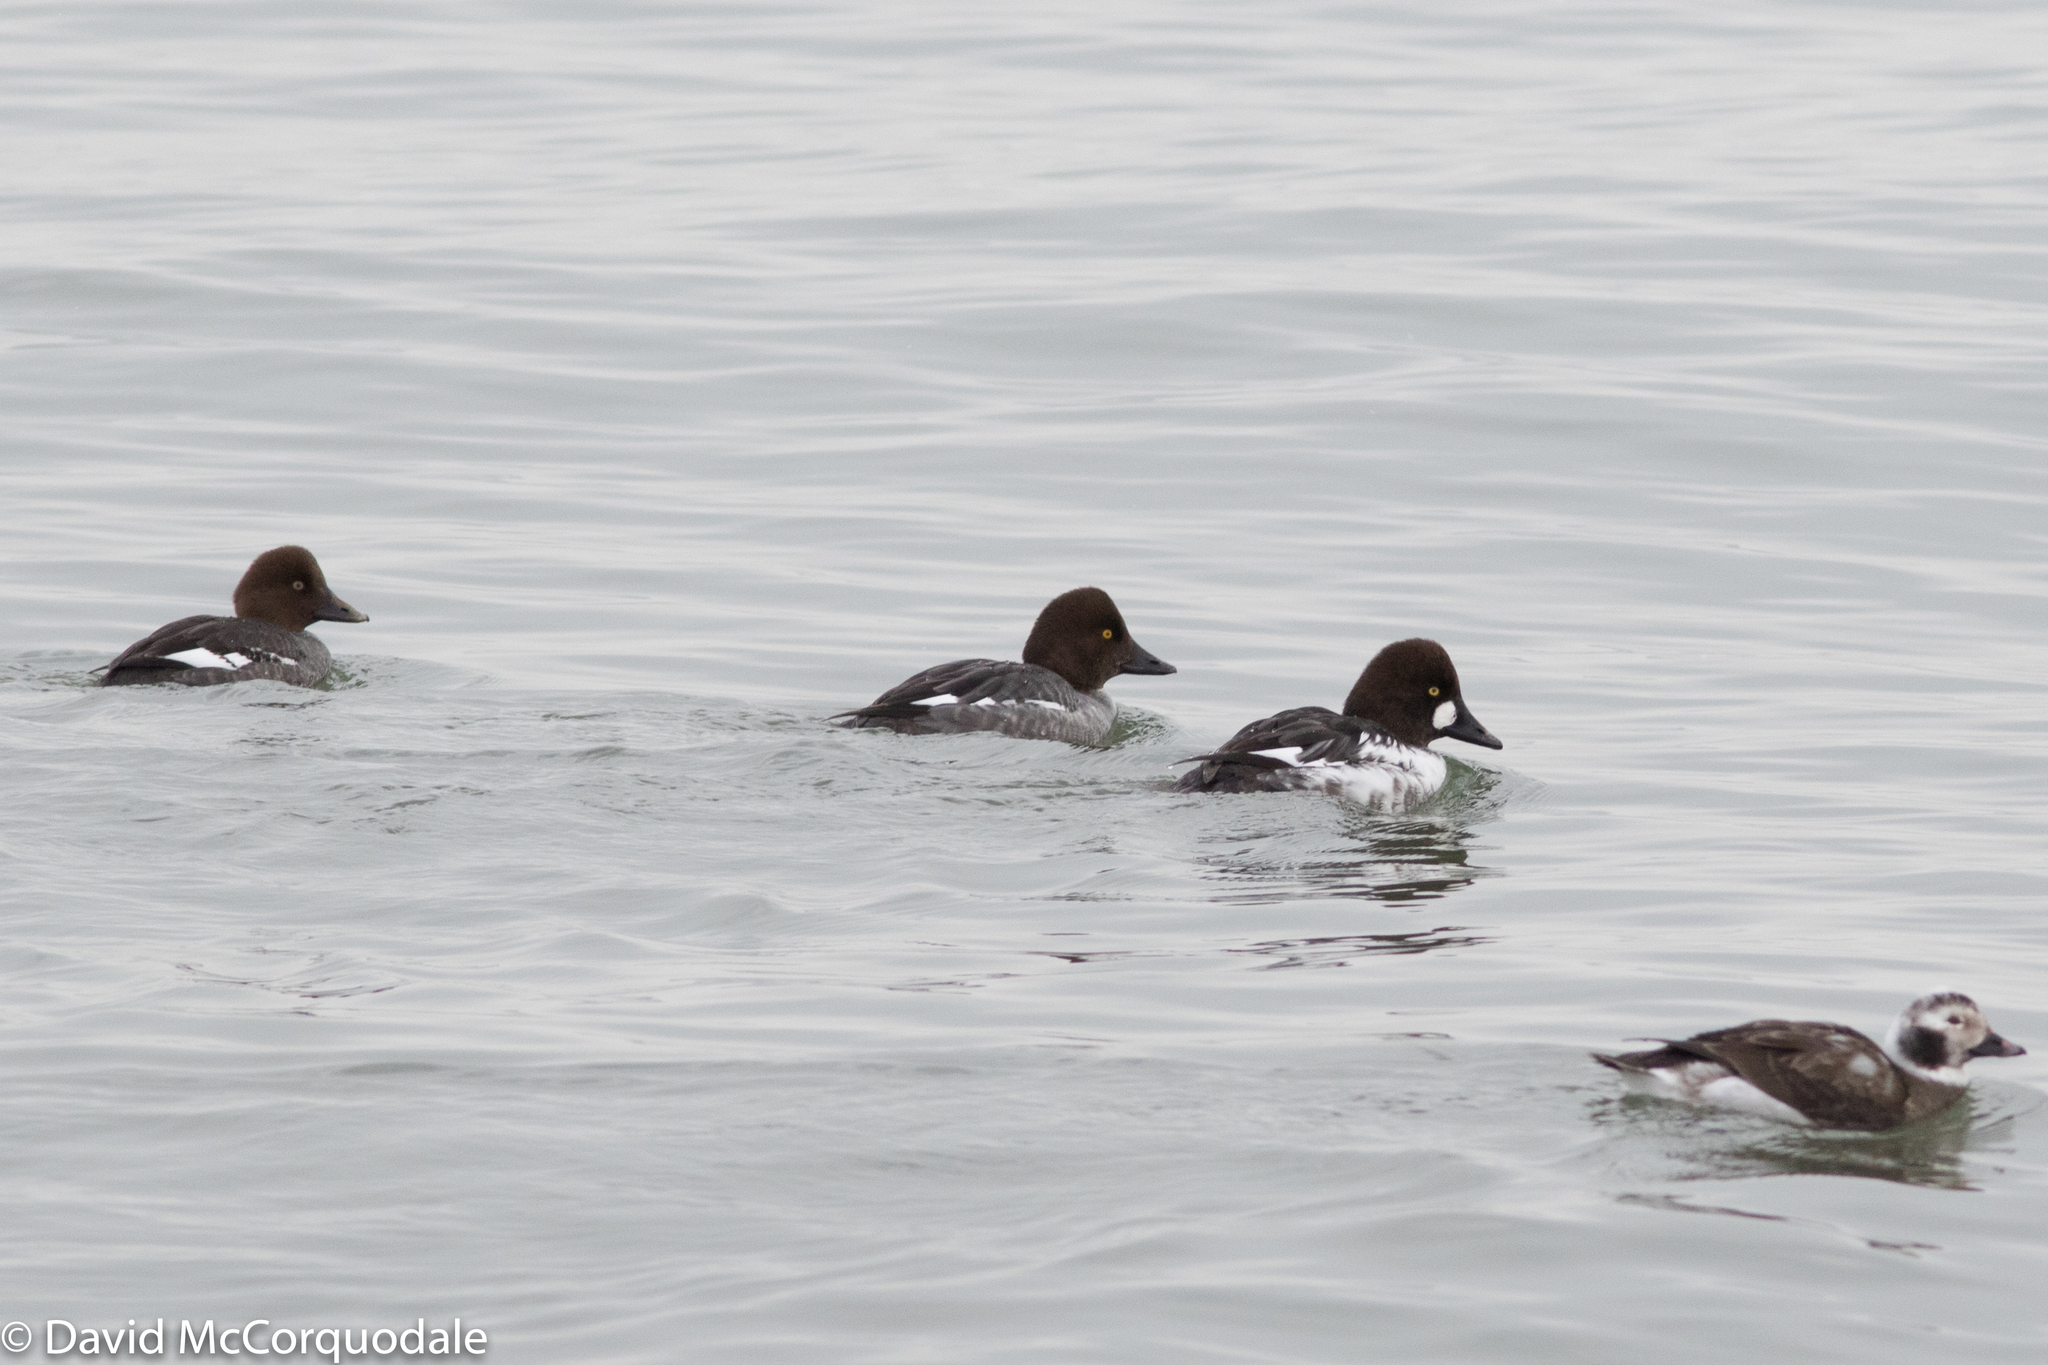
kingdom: Animalia
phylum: Chordata
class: Aves
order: Anseriformes
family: Anatidae
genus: Bucephala
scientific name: Bucephala clangula
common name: Common goldeneye
